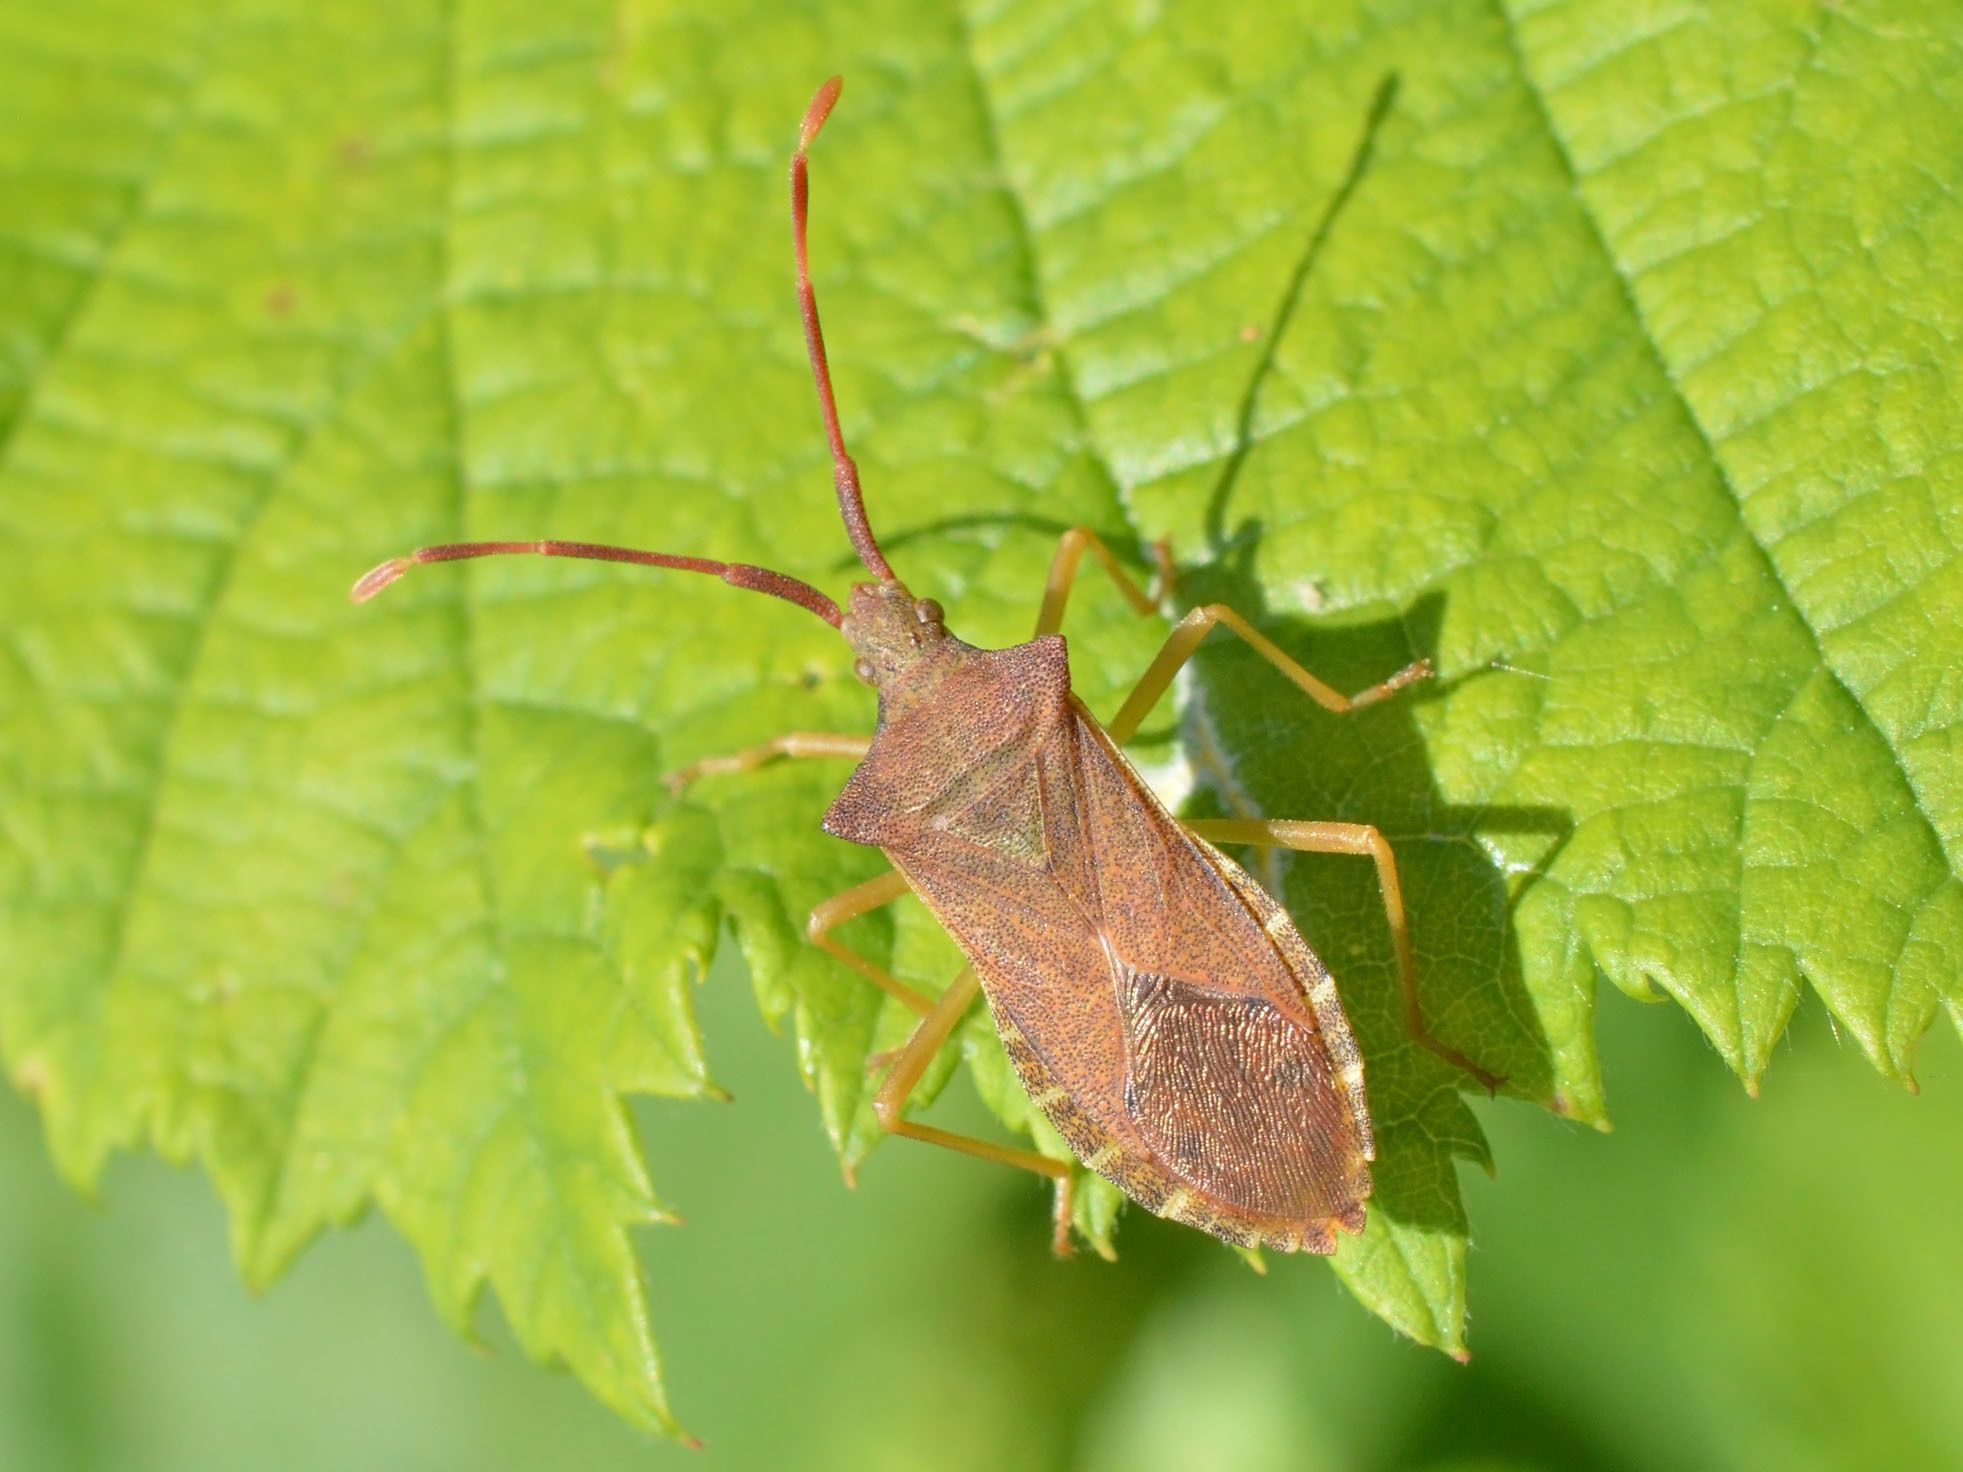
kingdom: Animalia
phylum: Arthropoda
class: Insecta
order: Hemiptera
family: Coreidae
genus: Gonocerus
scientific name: Gonocerus acuteangulatus
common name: Box bug
